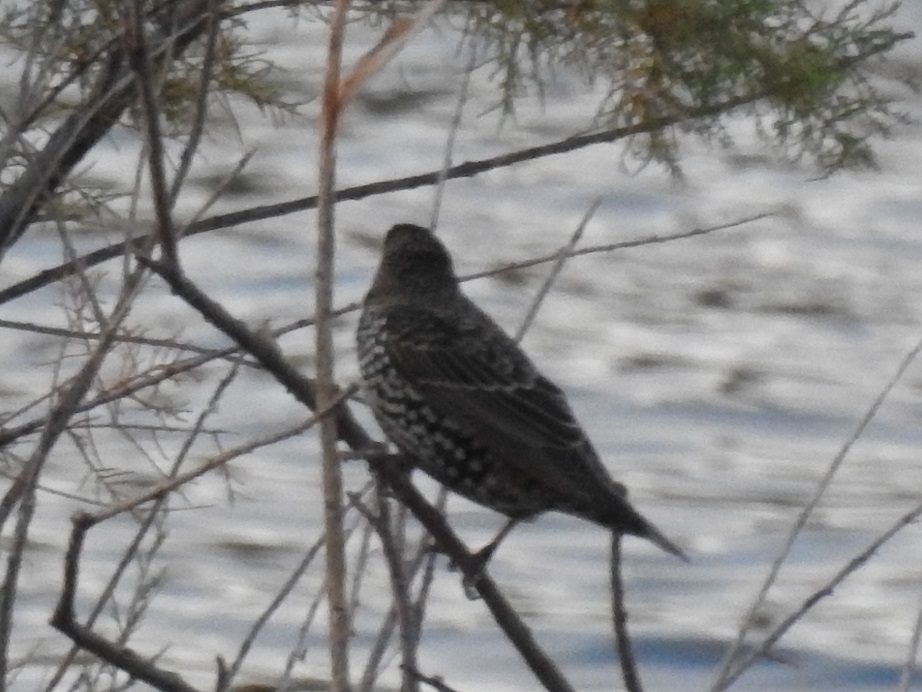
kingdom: Animalia
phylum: Chordata
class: Aves
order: Passeriformes
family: Sturnidae
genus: Sturnus
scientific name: Sturnus vulgaris
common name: Common starling
